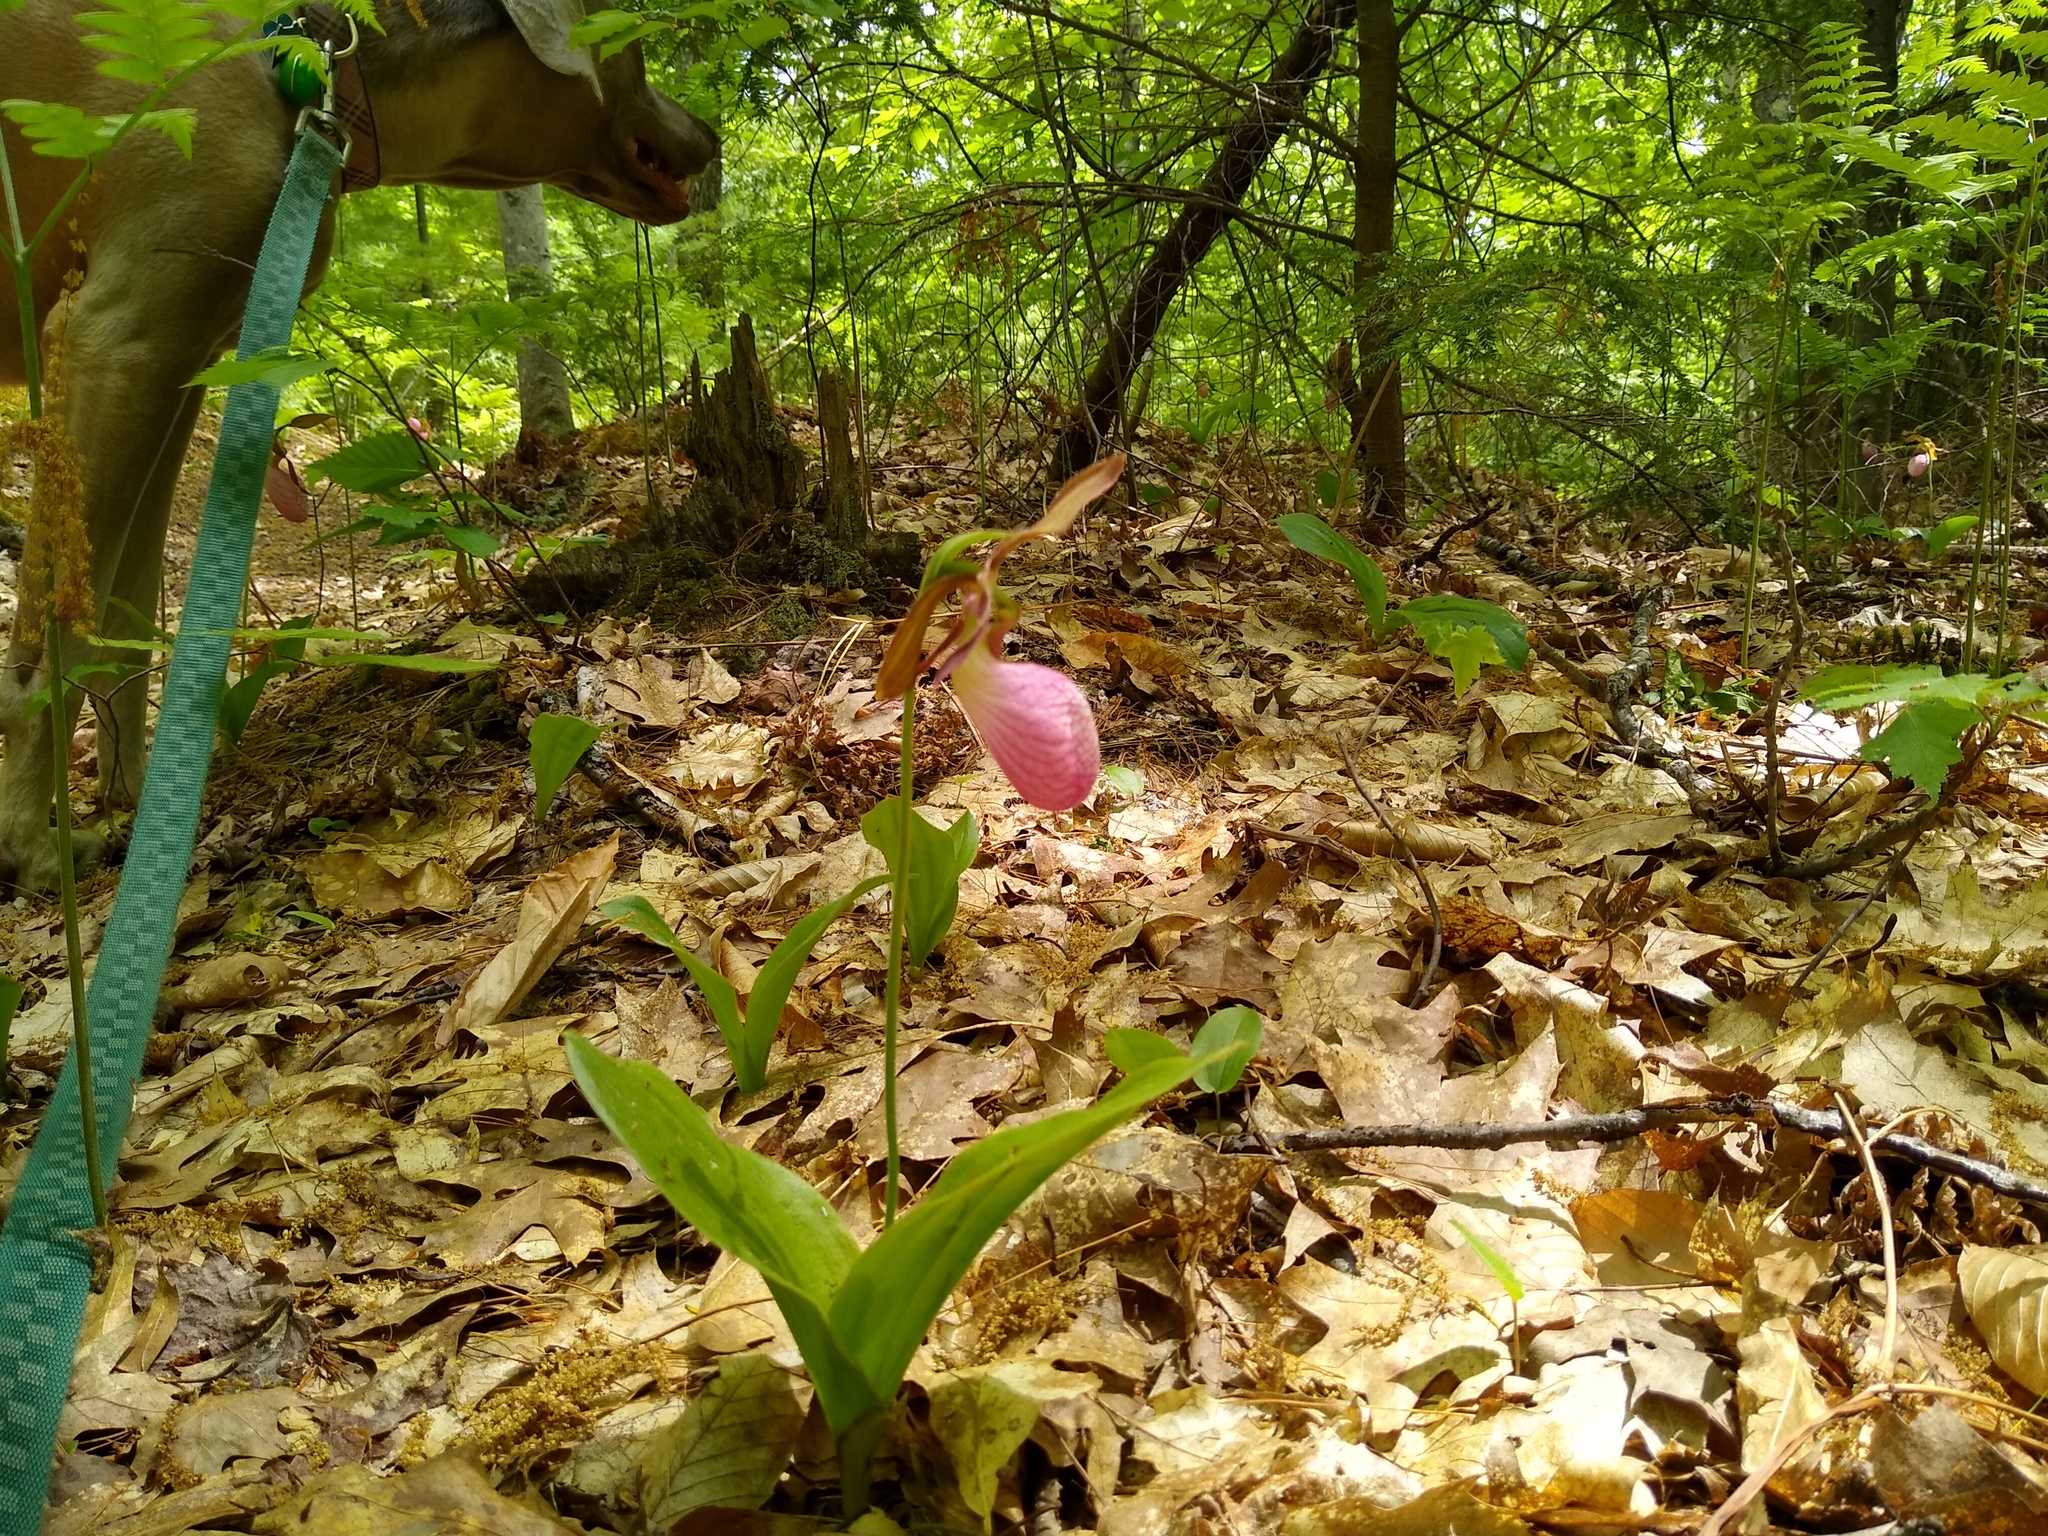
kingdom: Plantae
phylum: Tracheophyta
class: Liliopsida
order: Asparagales
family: Orchidaceae
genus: Cypripedium
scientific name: Cypripedium acaule
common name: Pink lady's-slipper
